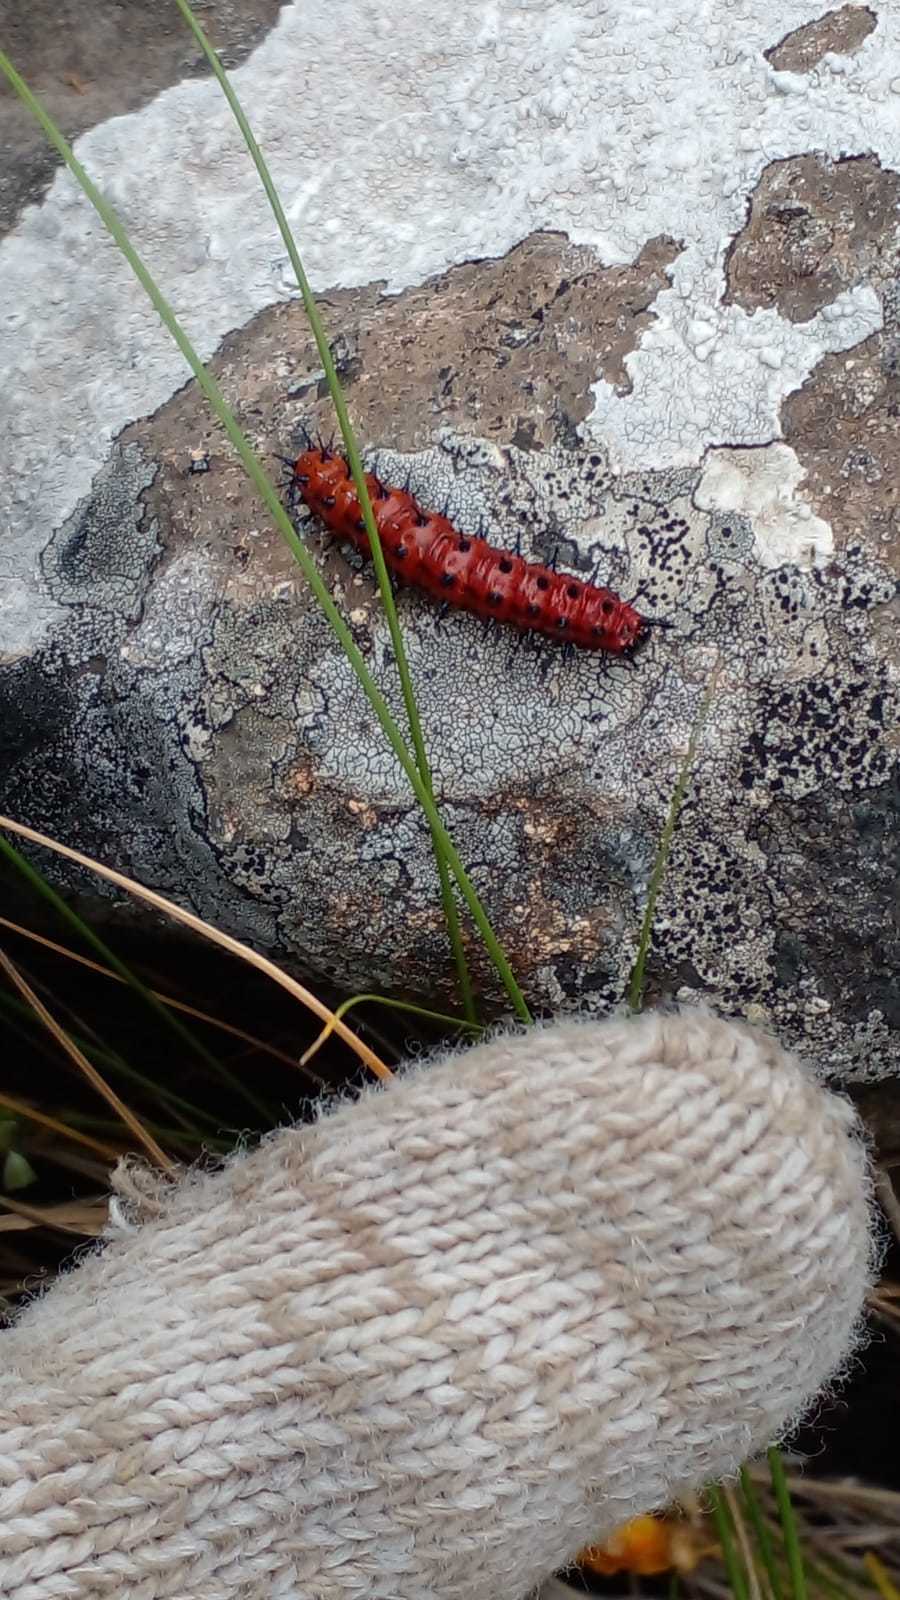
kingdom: Animalia
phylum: Arthropoda
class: Insecta
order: Lepidoptera
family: Nymphalidae
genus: Euptoieta
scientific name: Euptoieta hortensia
